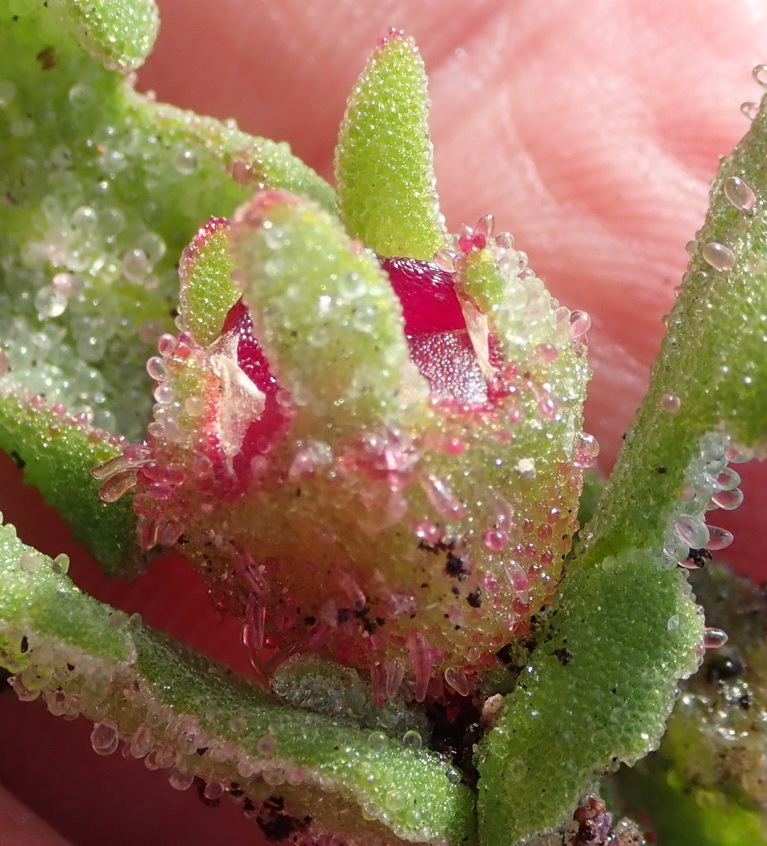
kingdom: Plantae
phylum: Tracheophyta
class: Magnoliopsida
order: Caryophyllales
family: Aizoaceae
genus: Cleretum
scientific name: Cleretum herrei
